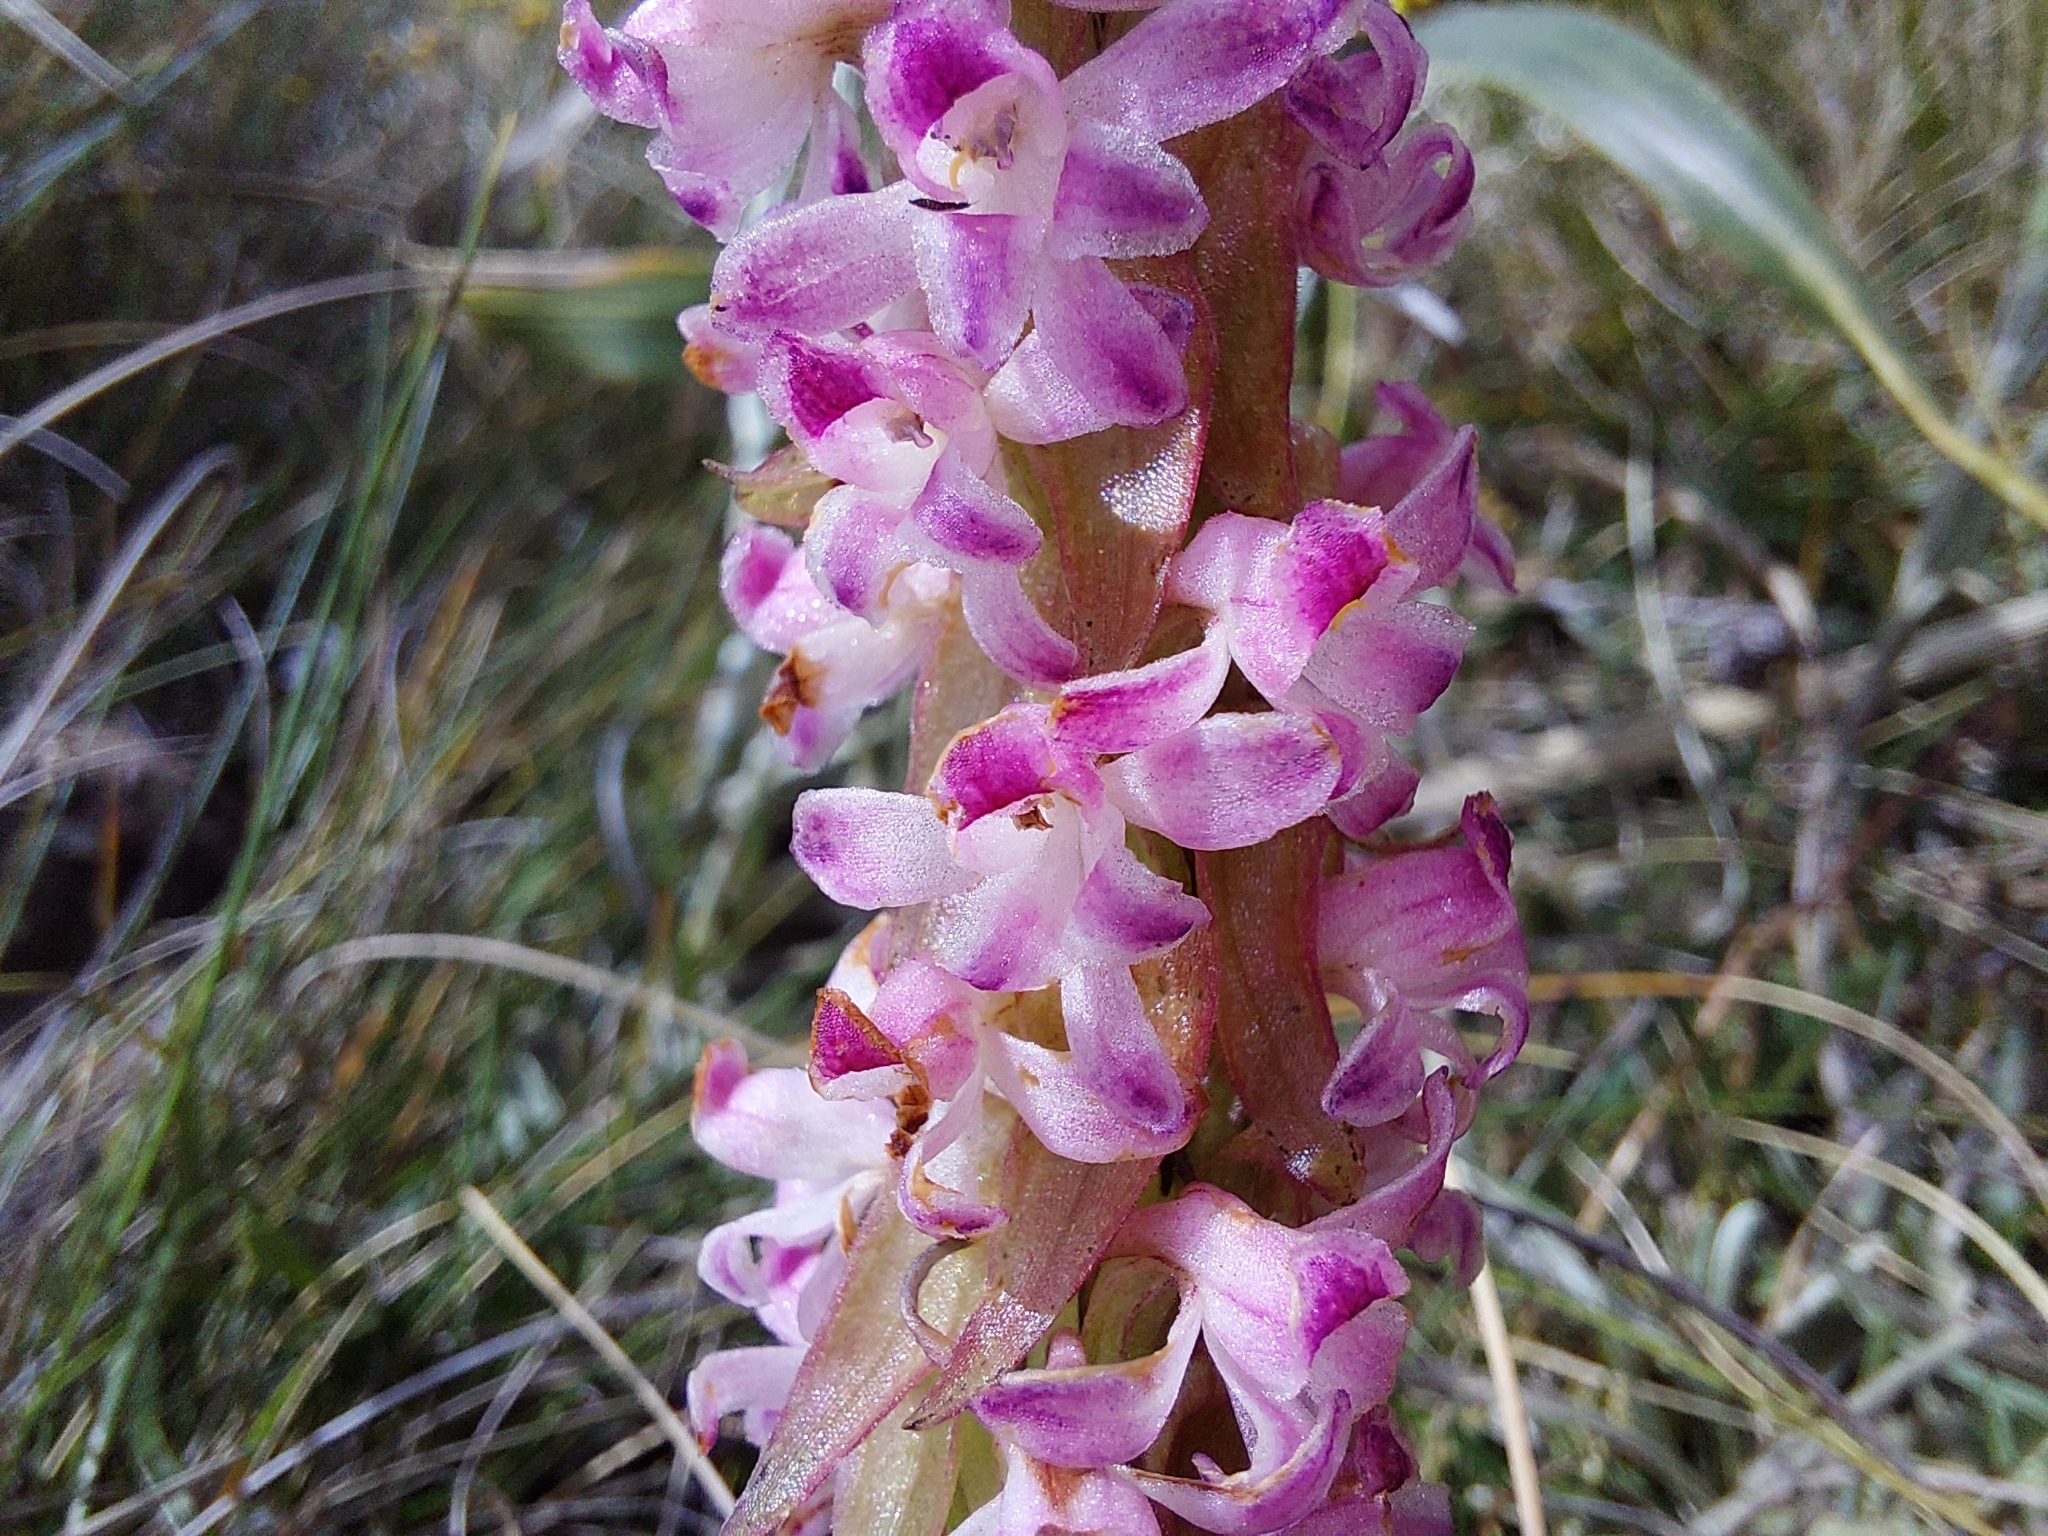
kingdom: Plantae
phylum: Tracheophyta
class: Liliopsida
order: Asparagales
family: Orchidaceae
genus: Satyrium
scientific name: Satyrium neglectum
